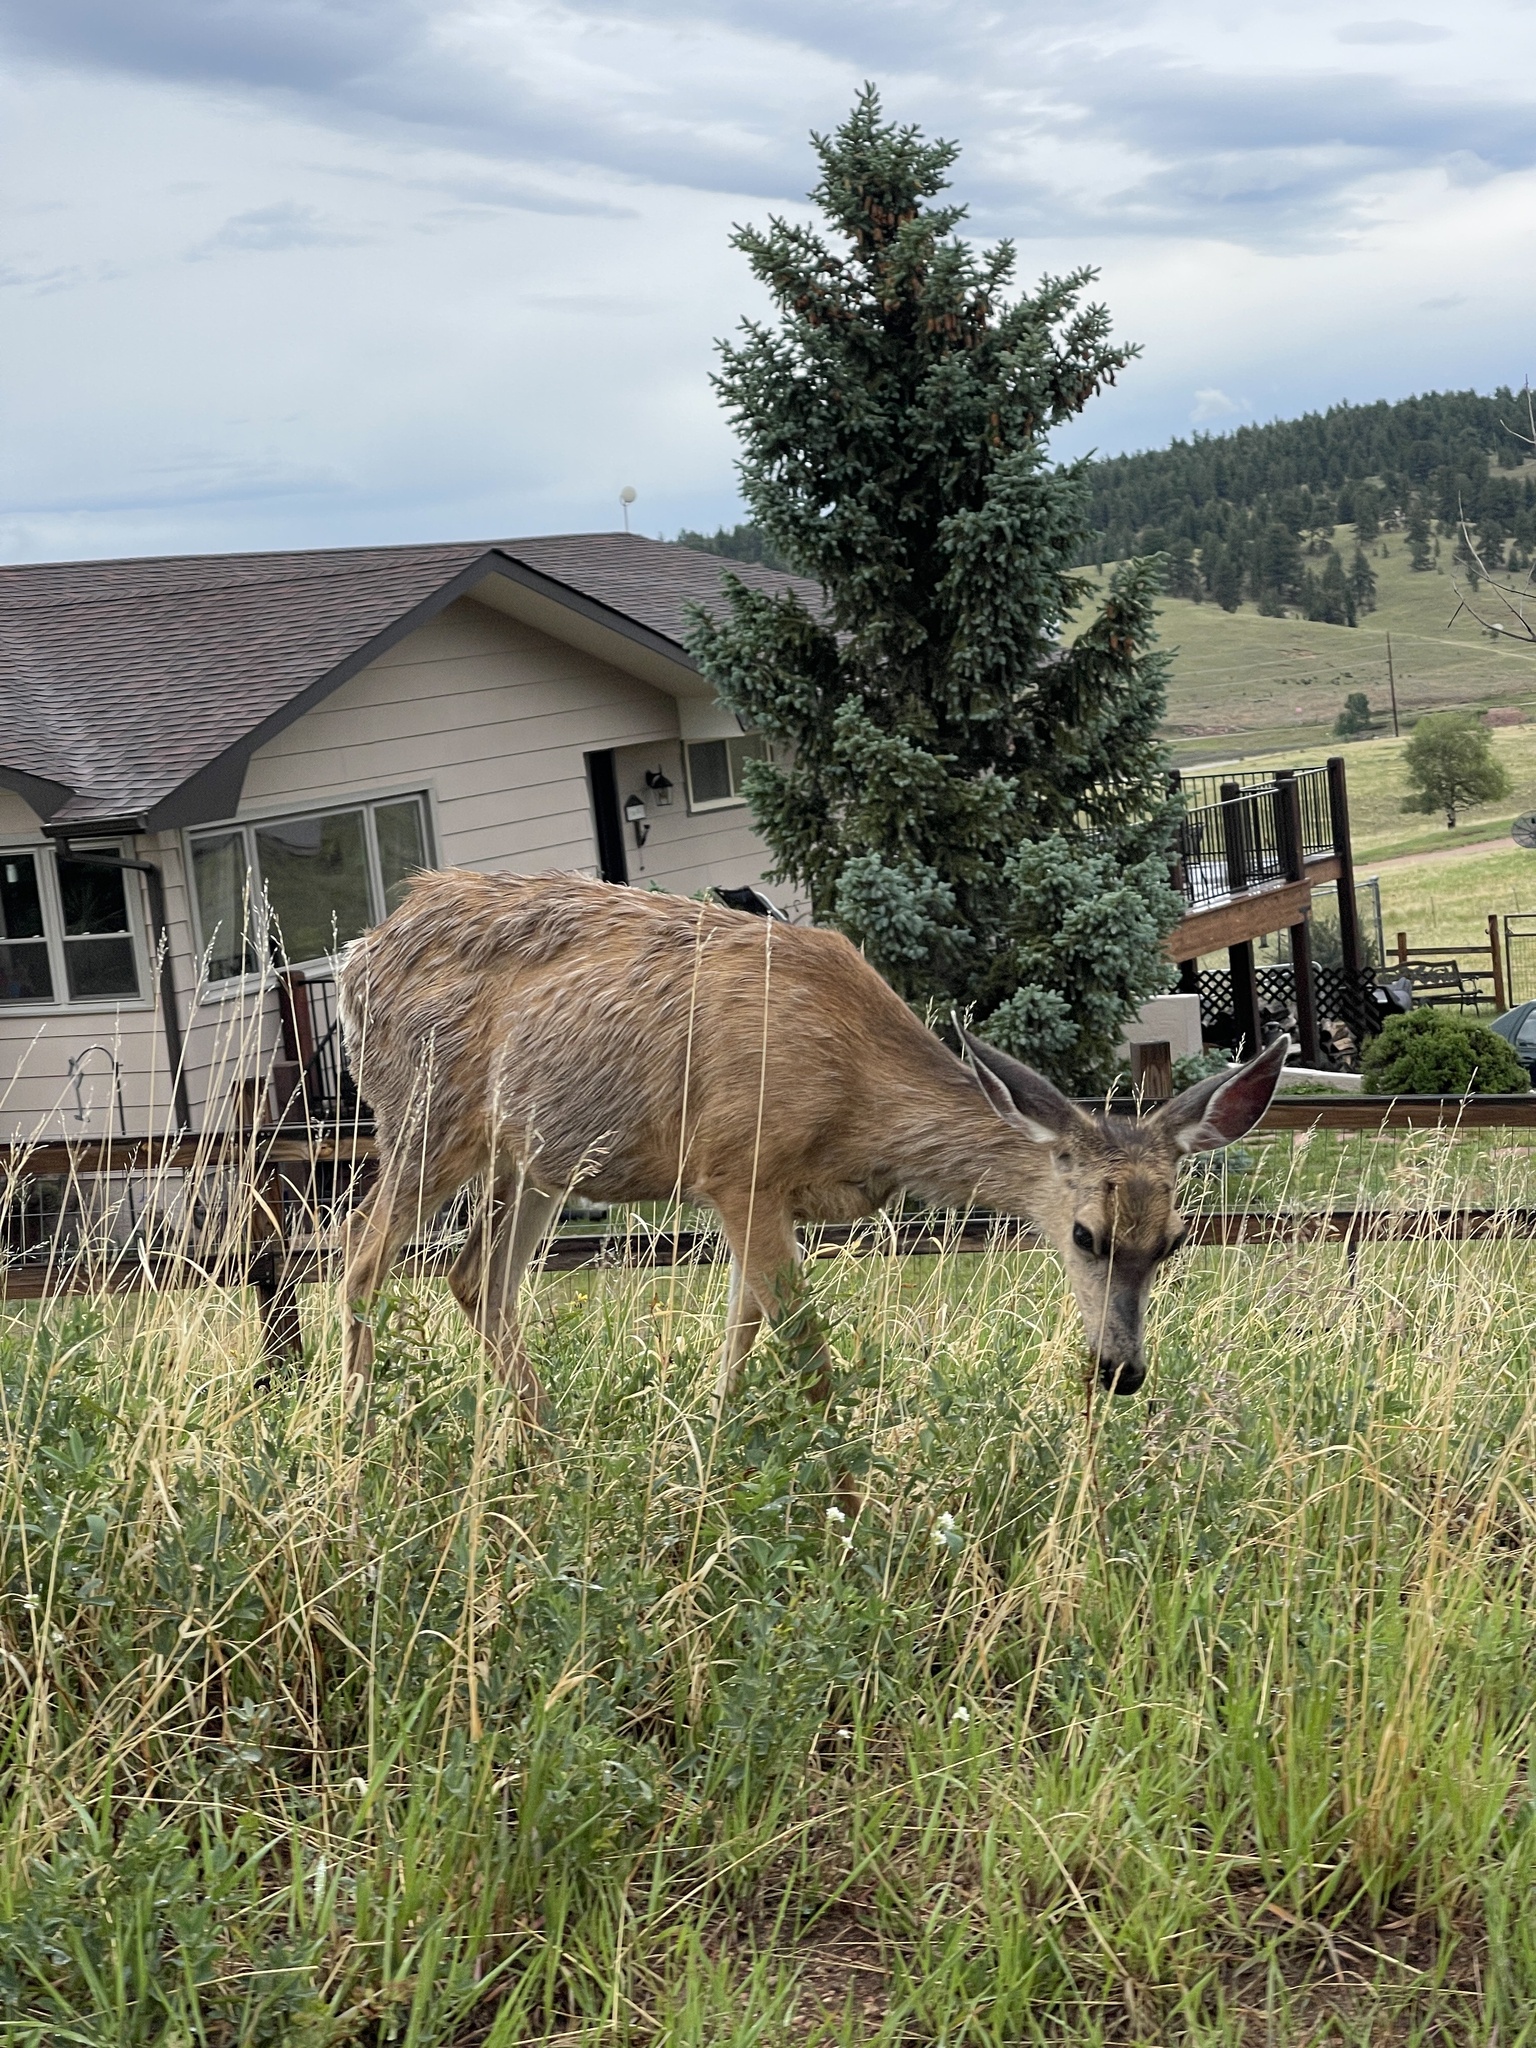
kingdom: Animalia
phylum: Chordata
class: Mammalia
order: Artiodactyla
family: Cervidae
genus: Odocoileus
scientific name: Odocoileus hemionus
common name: Mule deer
